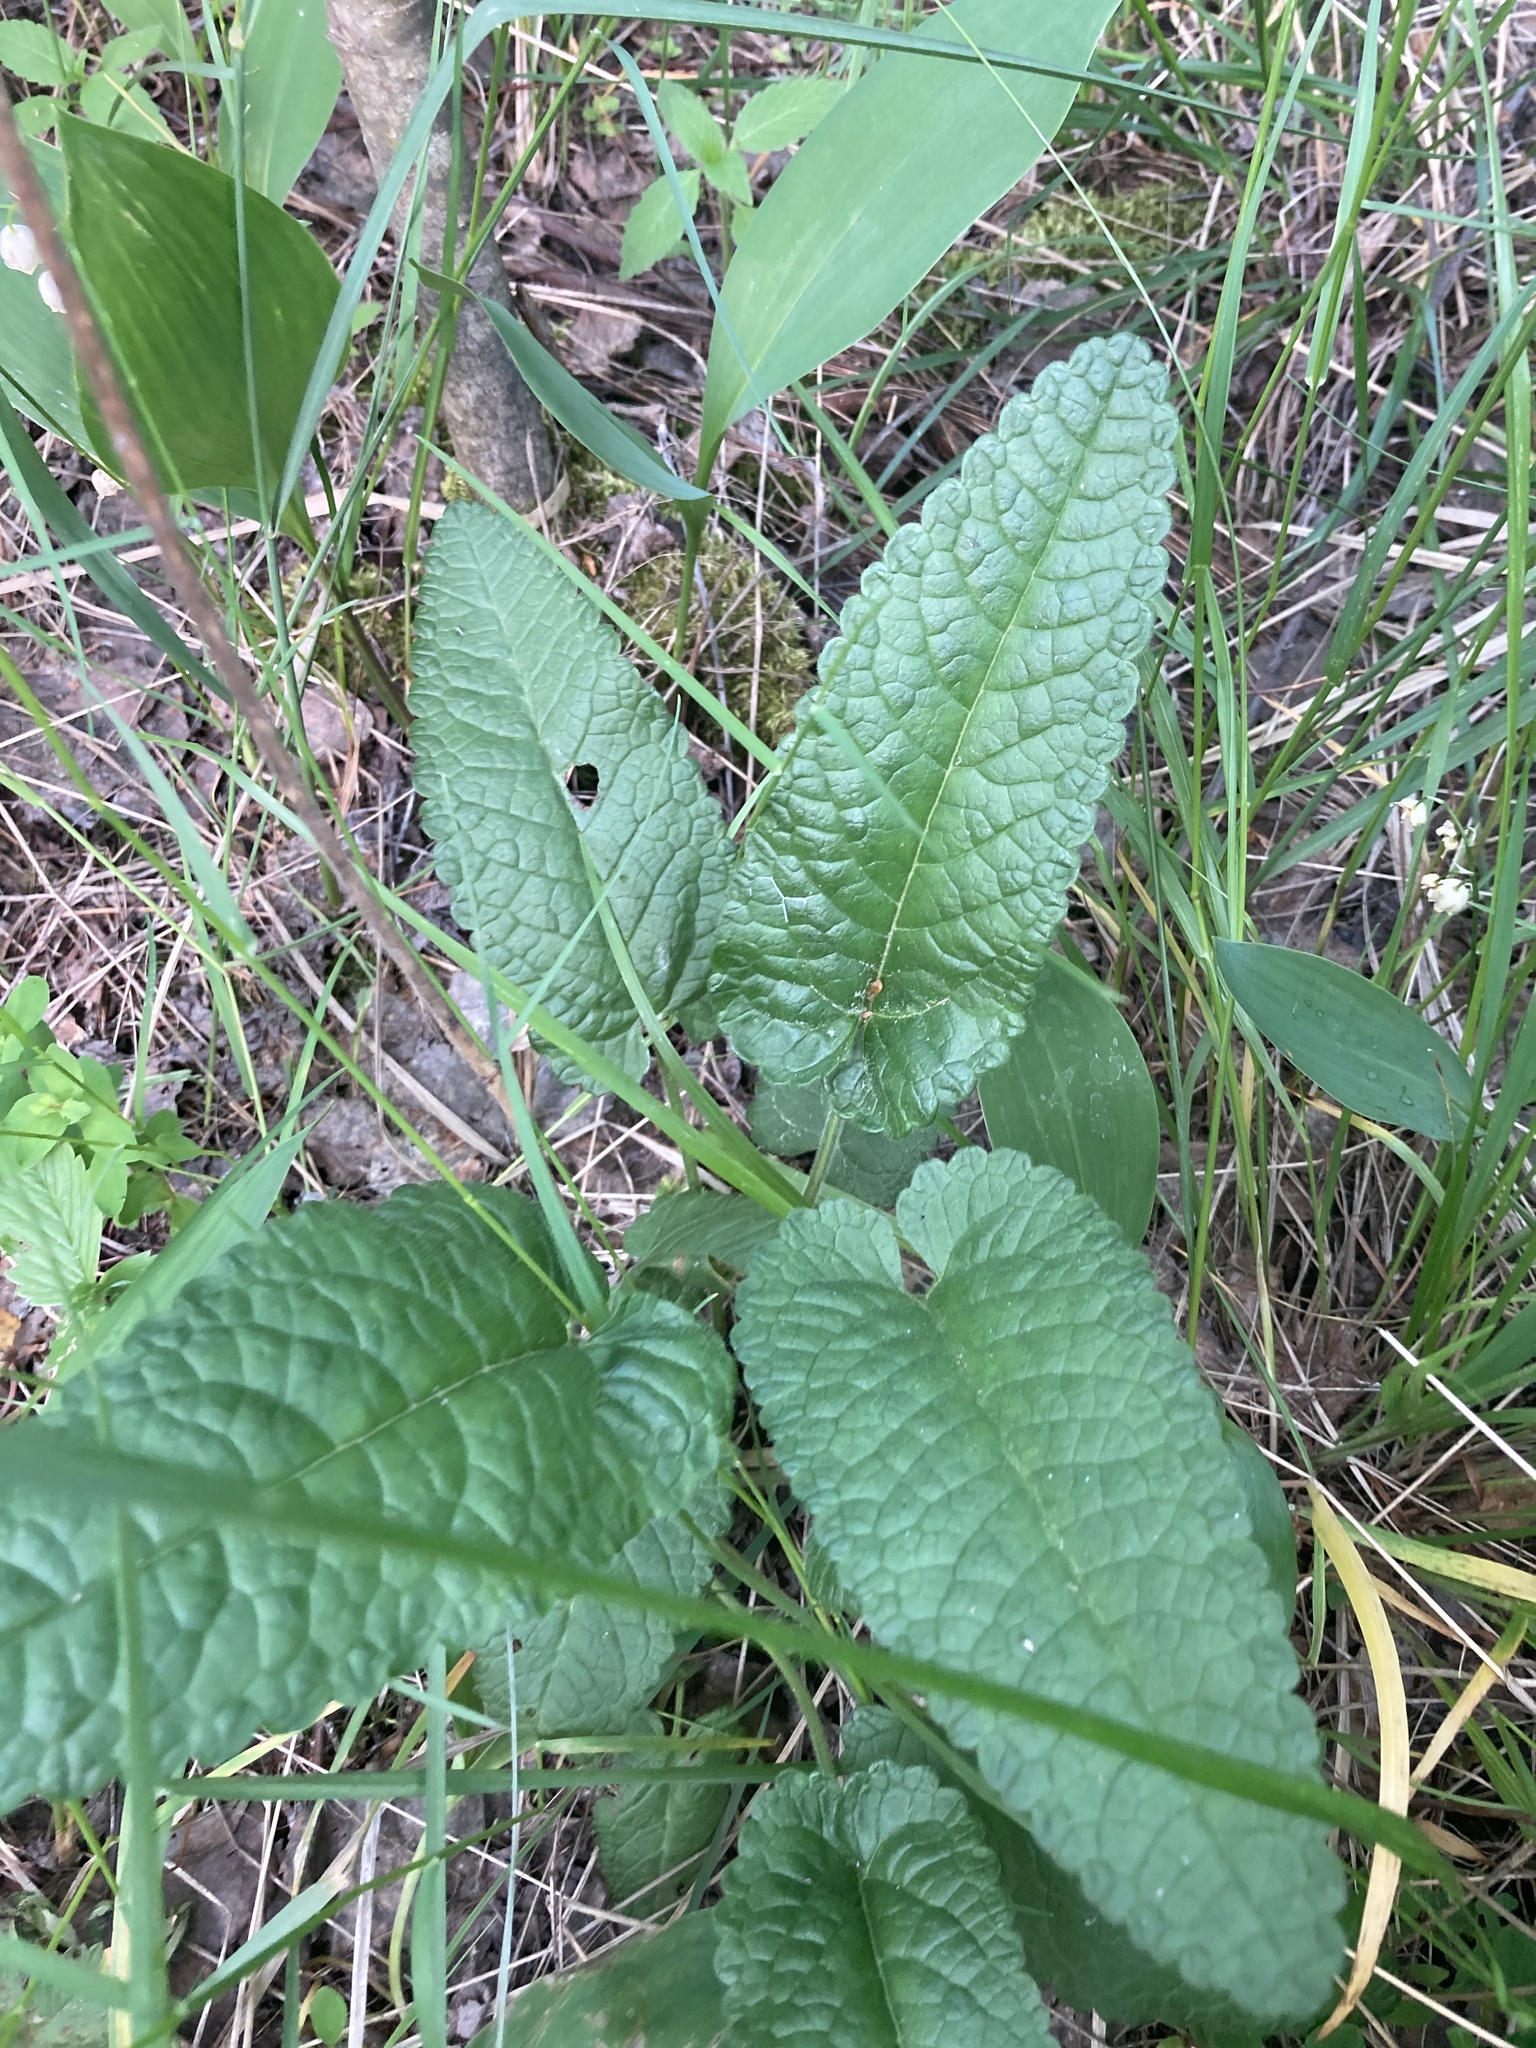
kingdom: Plantae
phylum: Tracheophyta
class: Magnoliopsida
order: Lamiales
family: Lamiaceae
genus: Betonica
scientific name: Betonica officinalis
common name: Bishop's-wort
